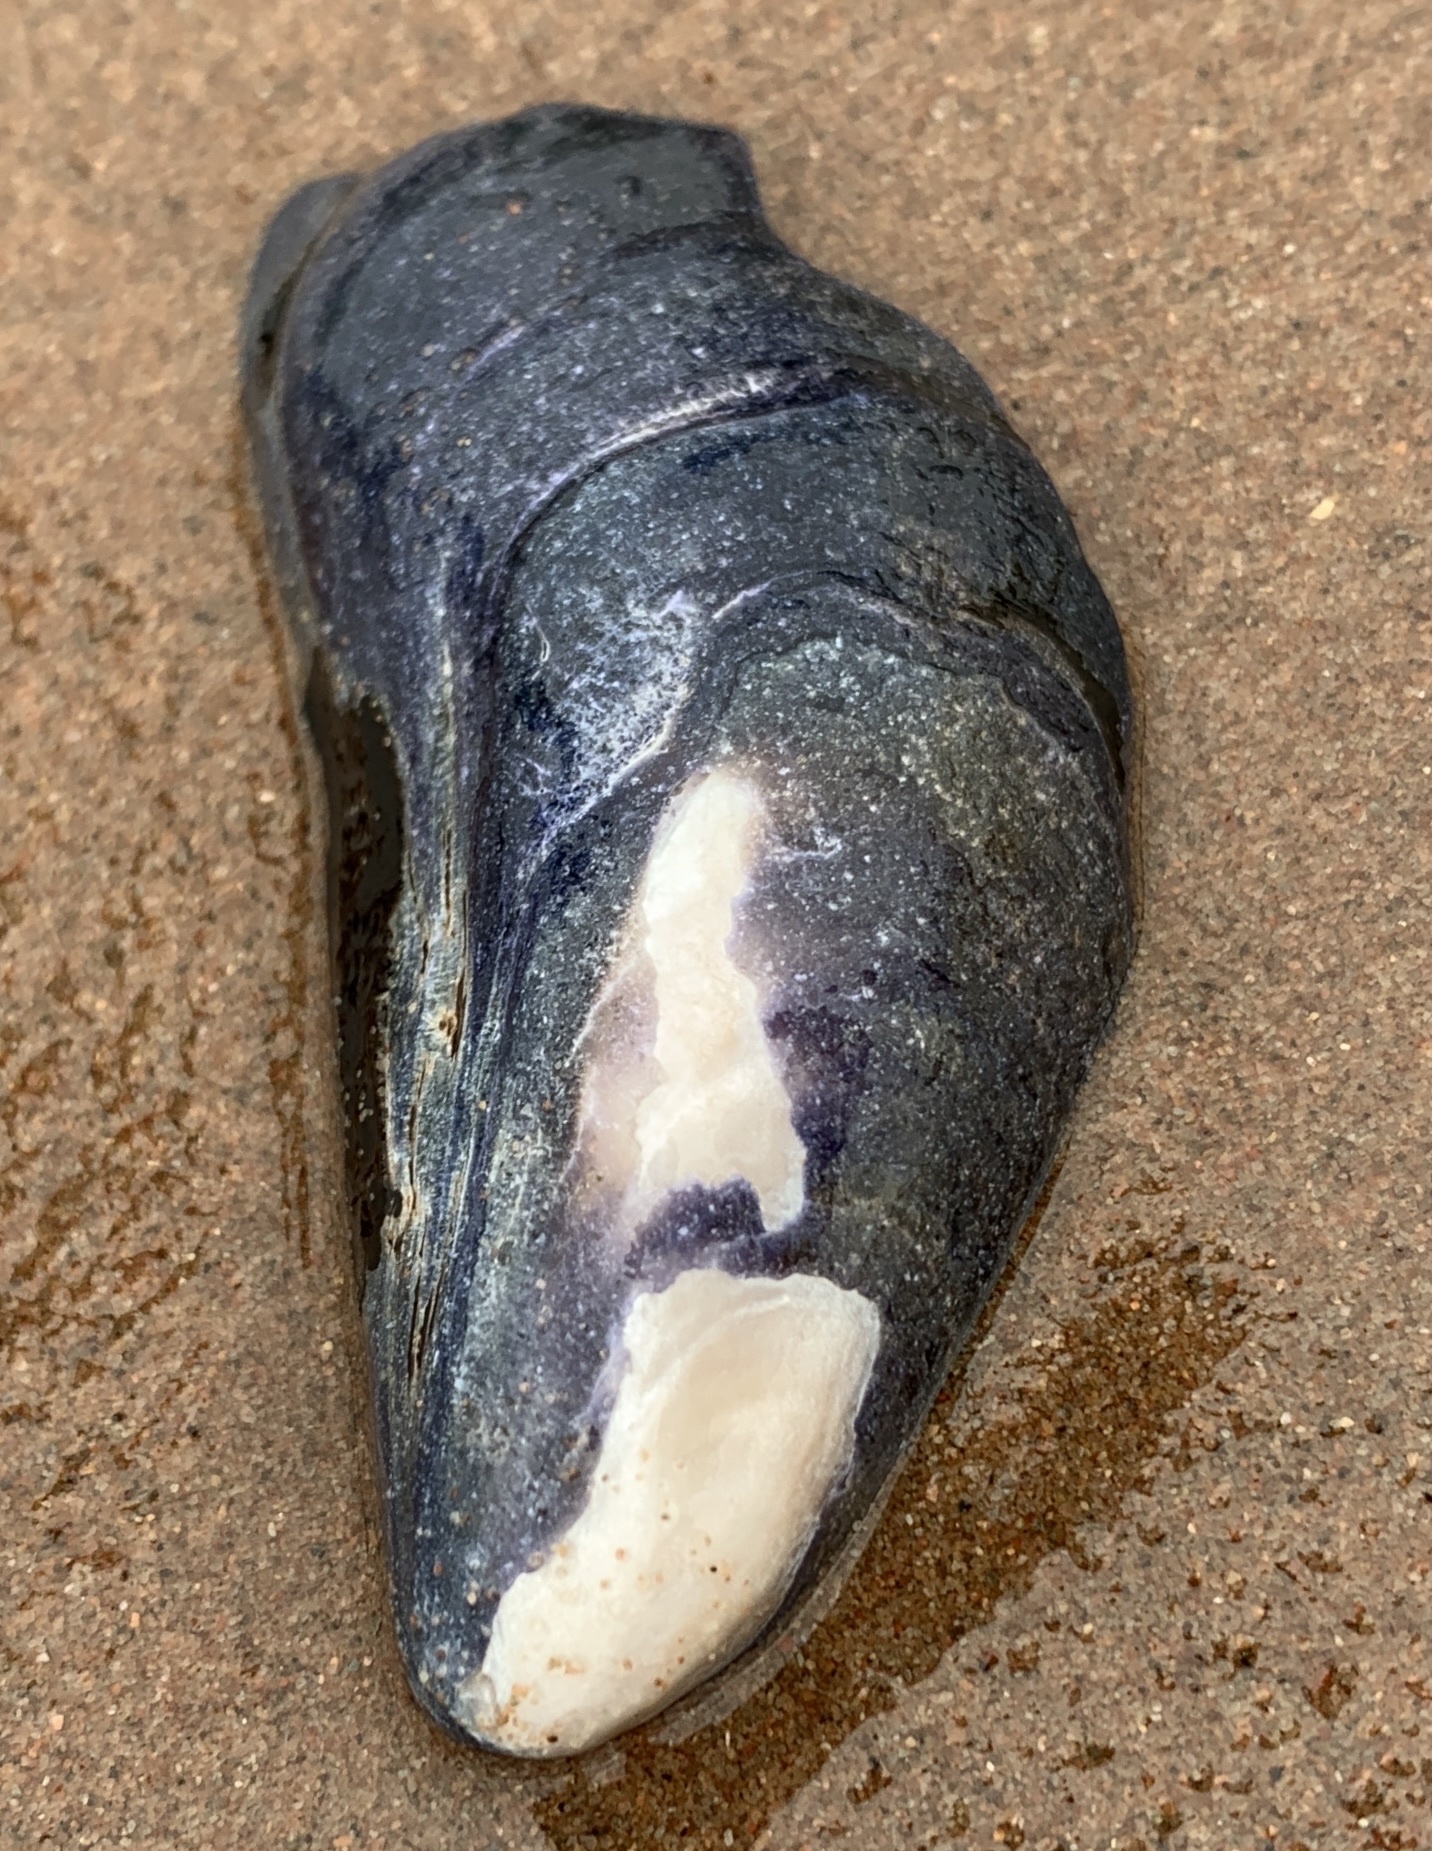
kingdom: Animalia
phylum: Mollusca
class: Bivalvia
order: Mytilida
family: Mytilidae
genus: Mytilus
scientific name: Mytilus
